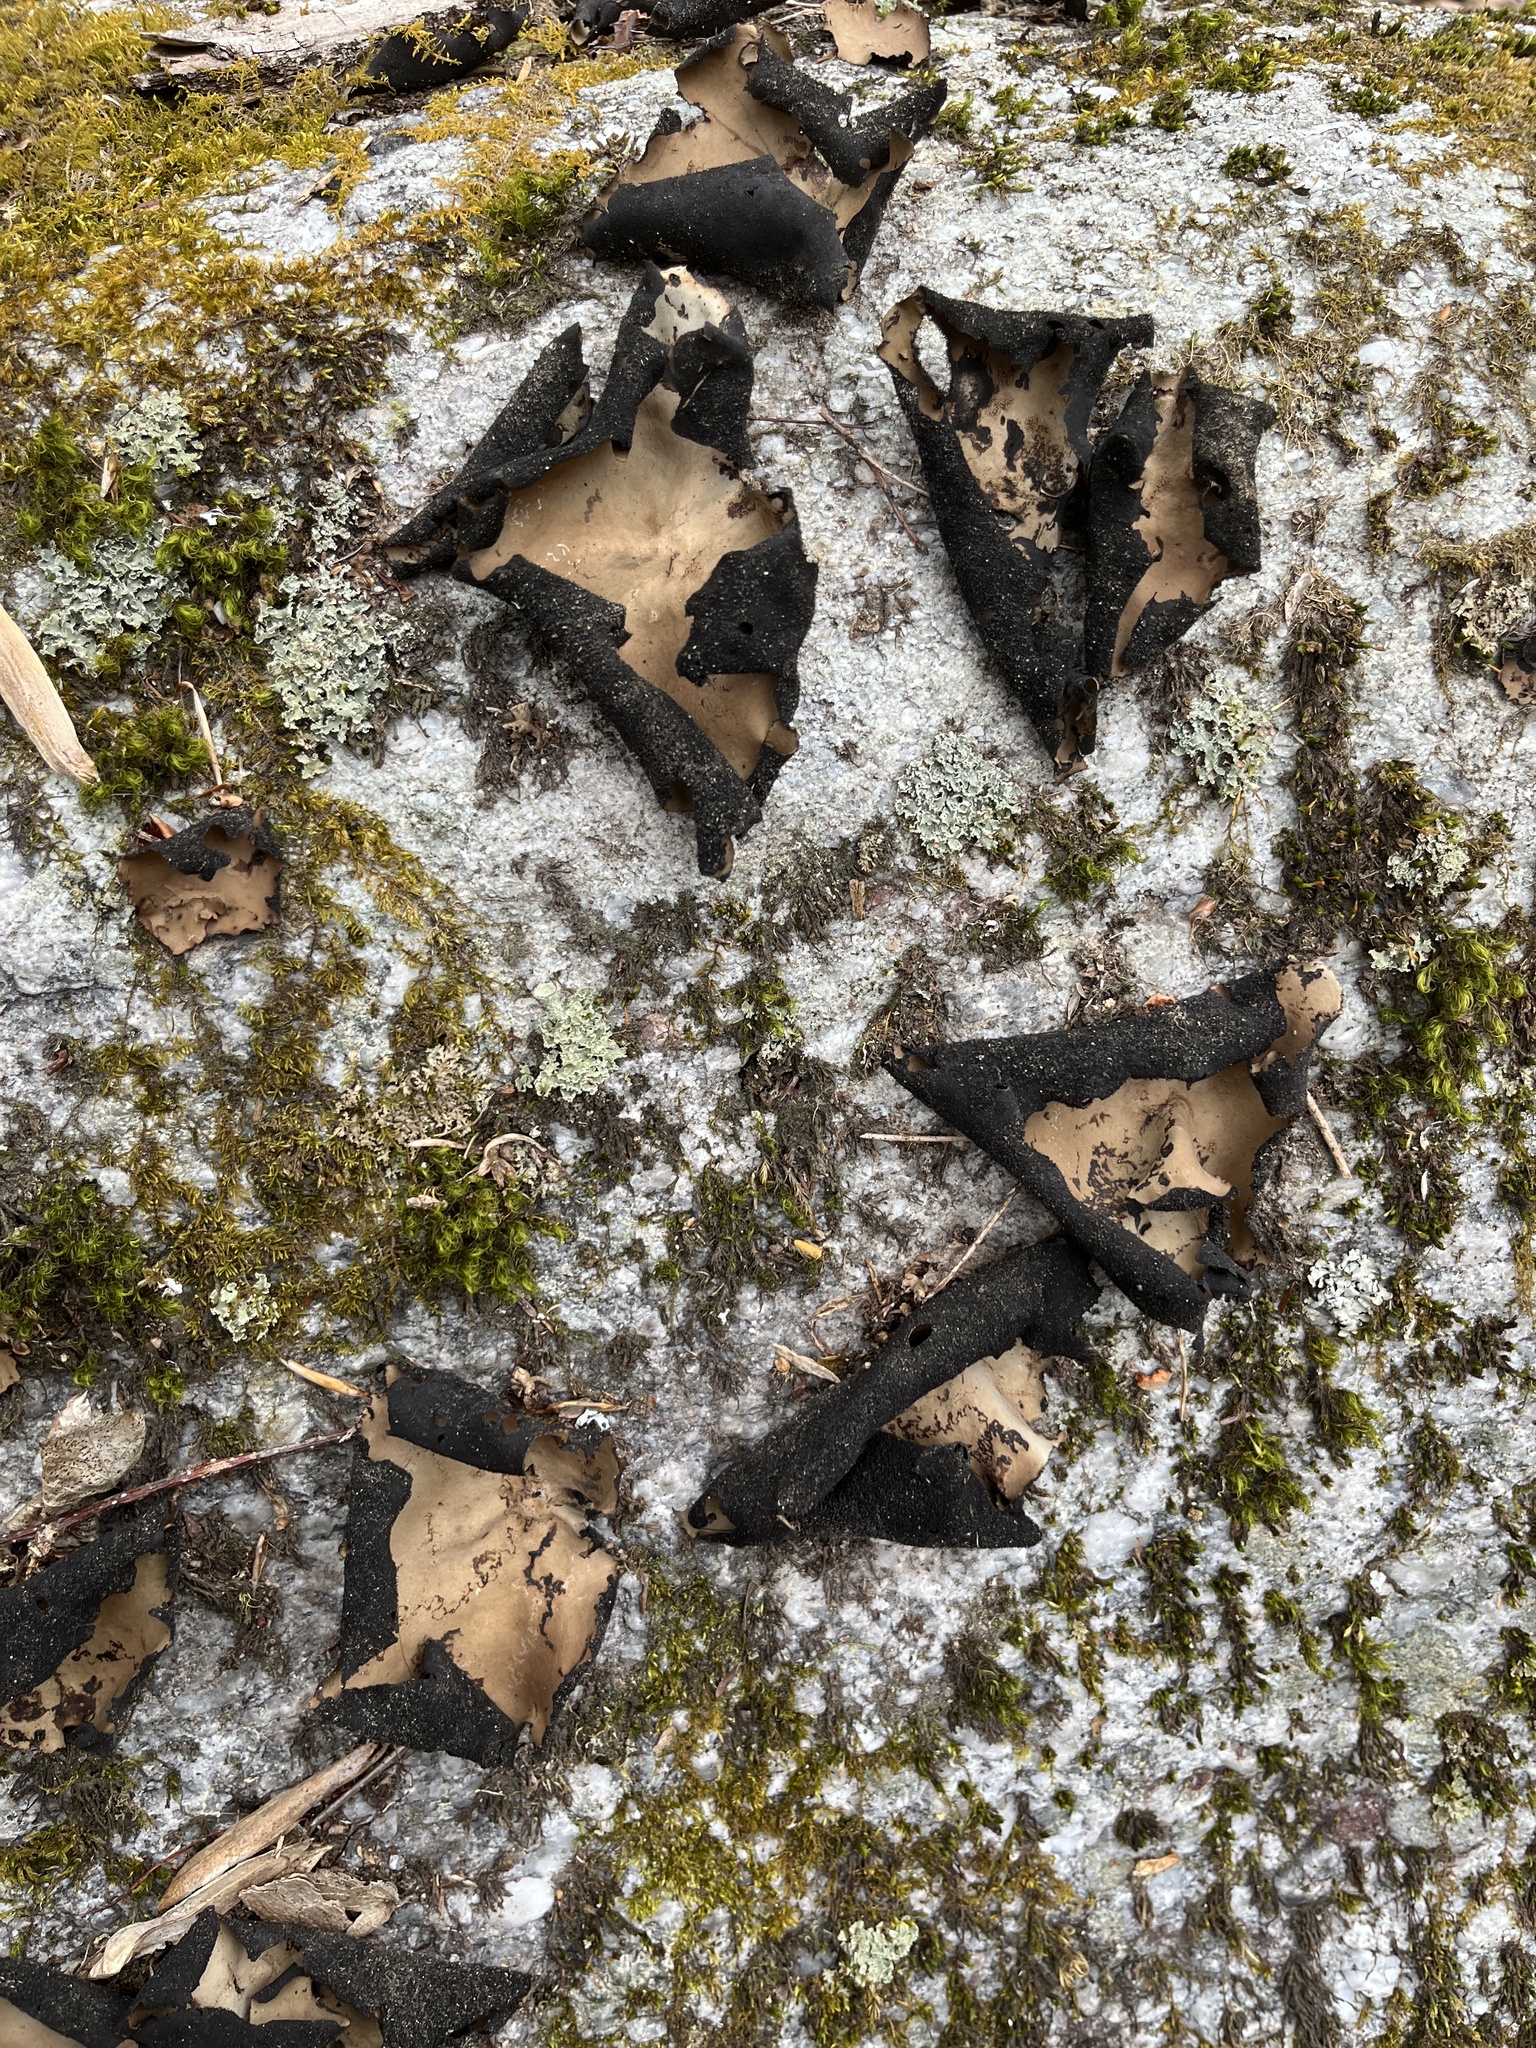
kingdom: Fungi
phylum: Ascomycota
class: Lecanoromycetes
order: Umbilicariales
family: Umbilicariaceae
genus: Umbilicaria
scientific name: Umbilicaria mammulata
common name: Smooth rock tripe
